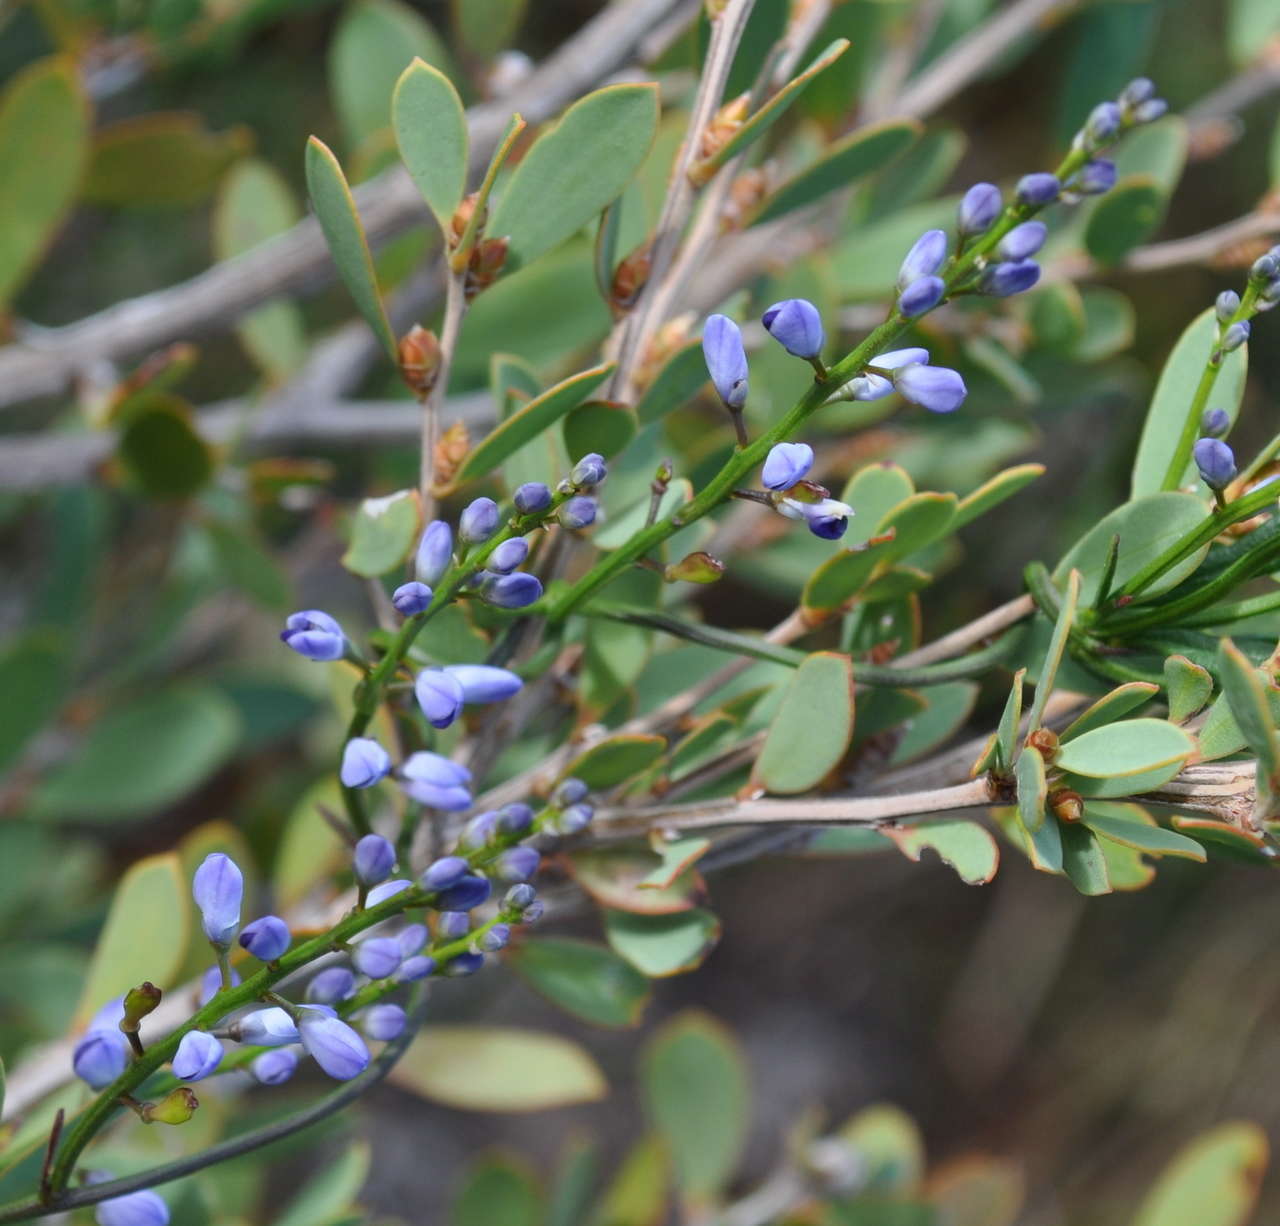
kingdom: Plantae
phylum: Tracheophyta
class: Magnoliopsida
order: Fabales
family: Polygalaceae
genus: Comesperma
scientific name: Comesperma volubile
